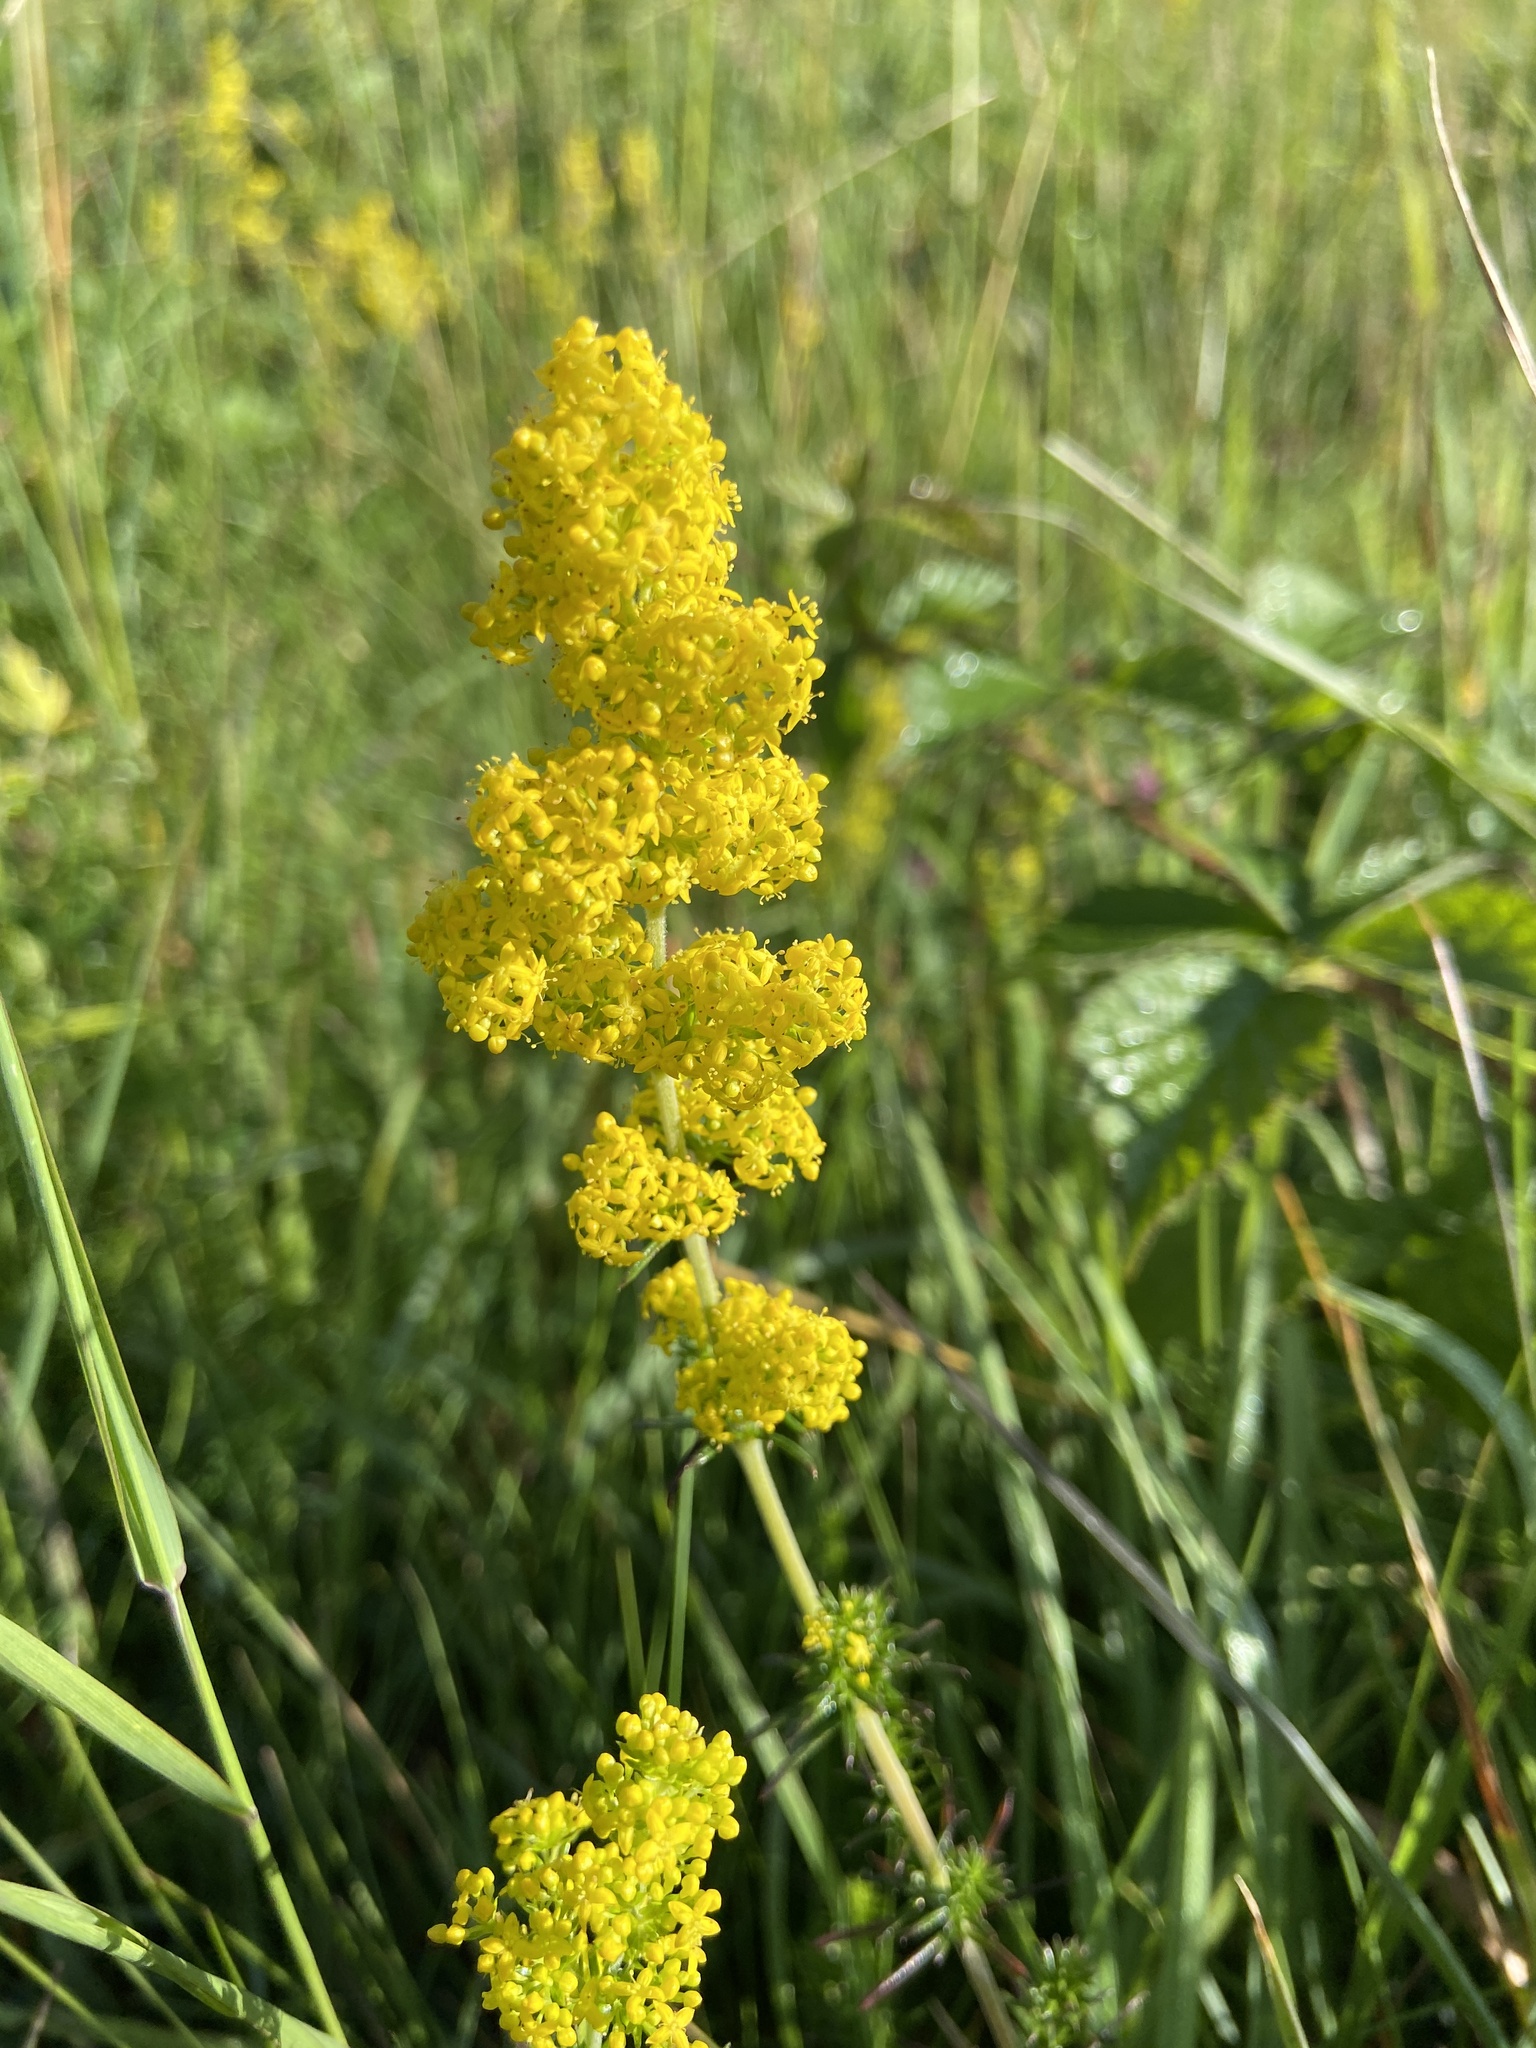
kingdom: Plantae
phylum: Tracheophyta
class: Magnoliopsida
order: Gentianales
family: Rubiaceae
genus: Galium
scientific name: Galium verum
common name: Lady's bedstraw
